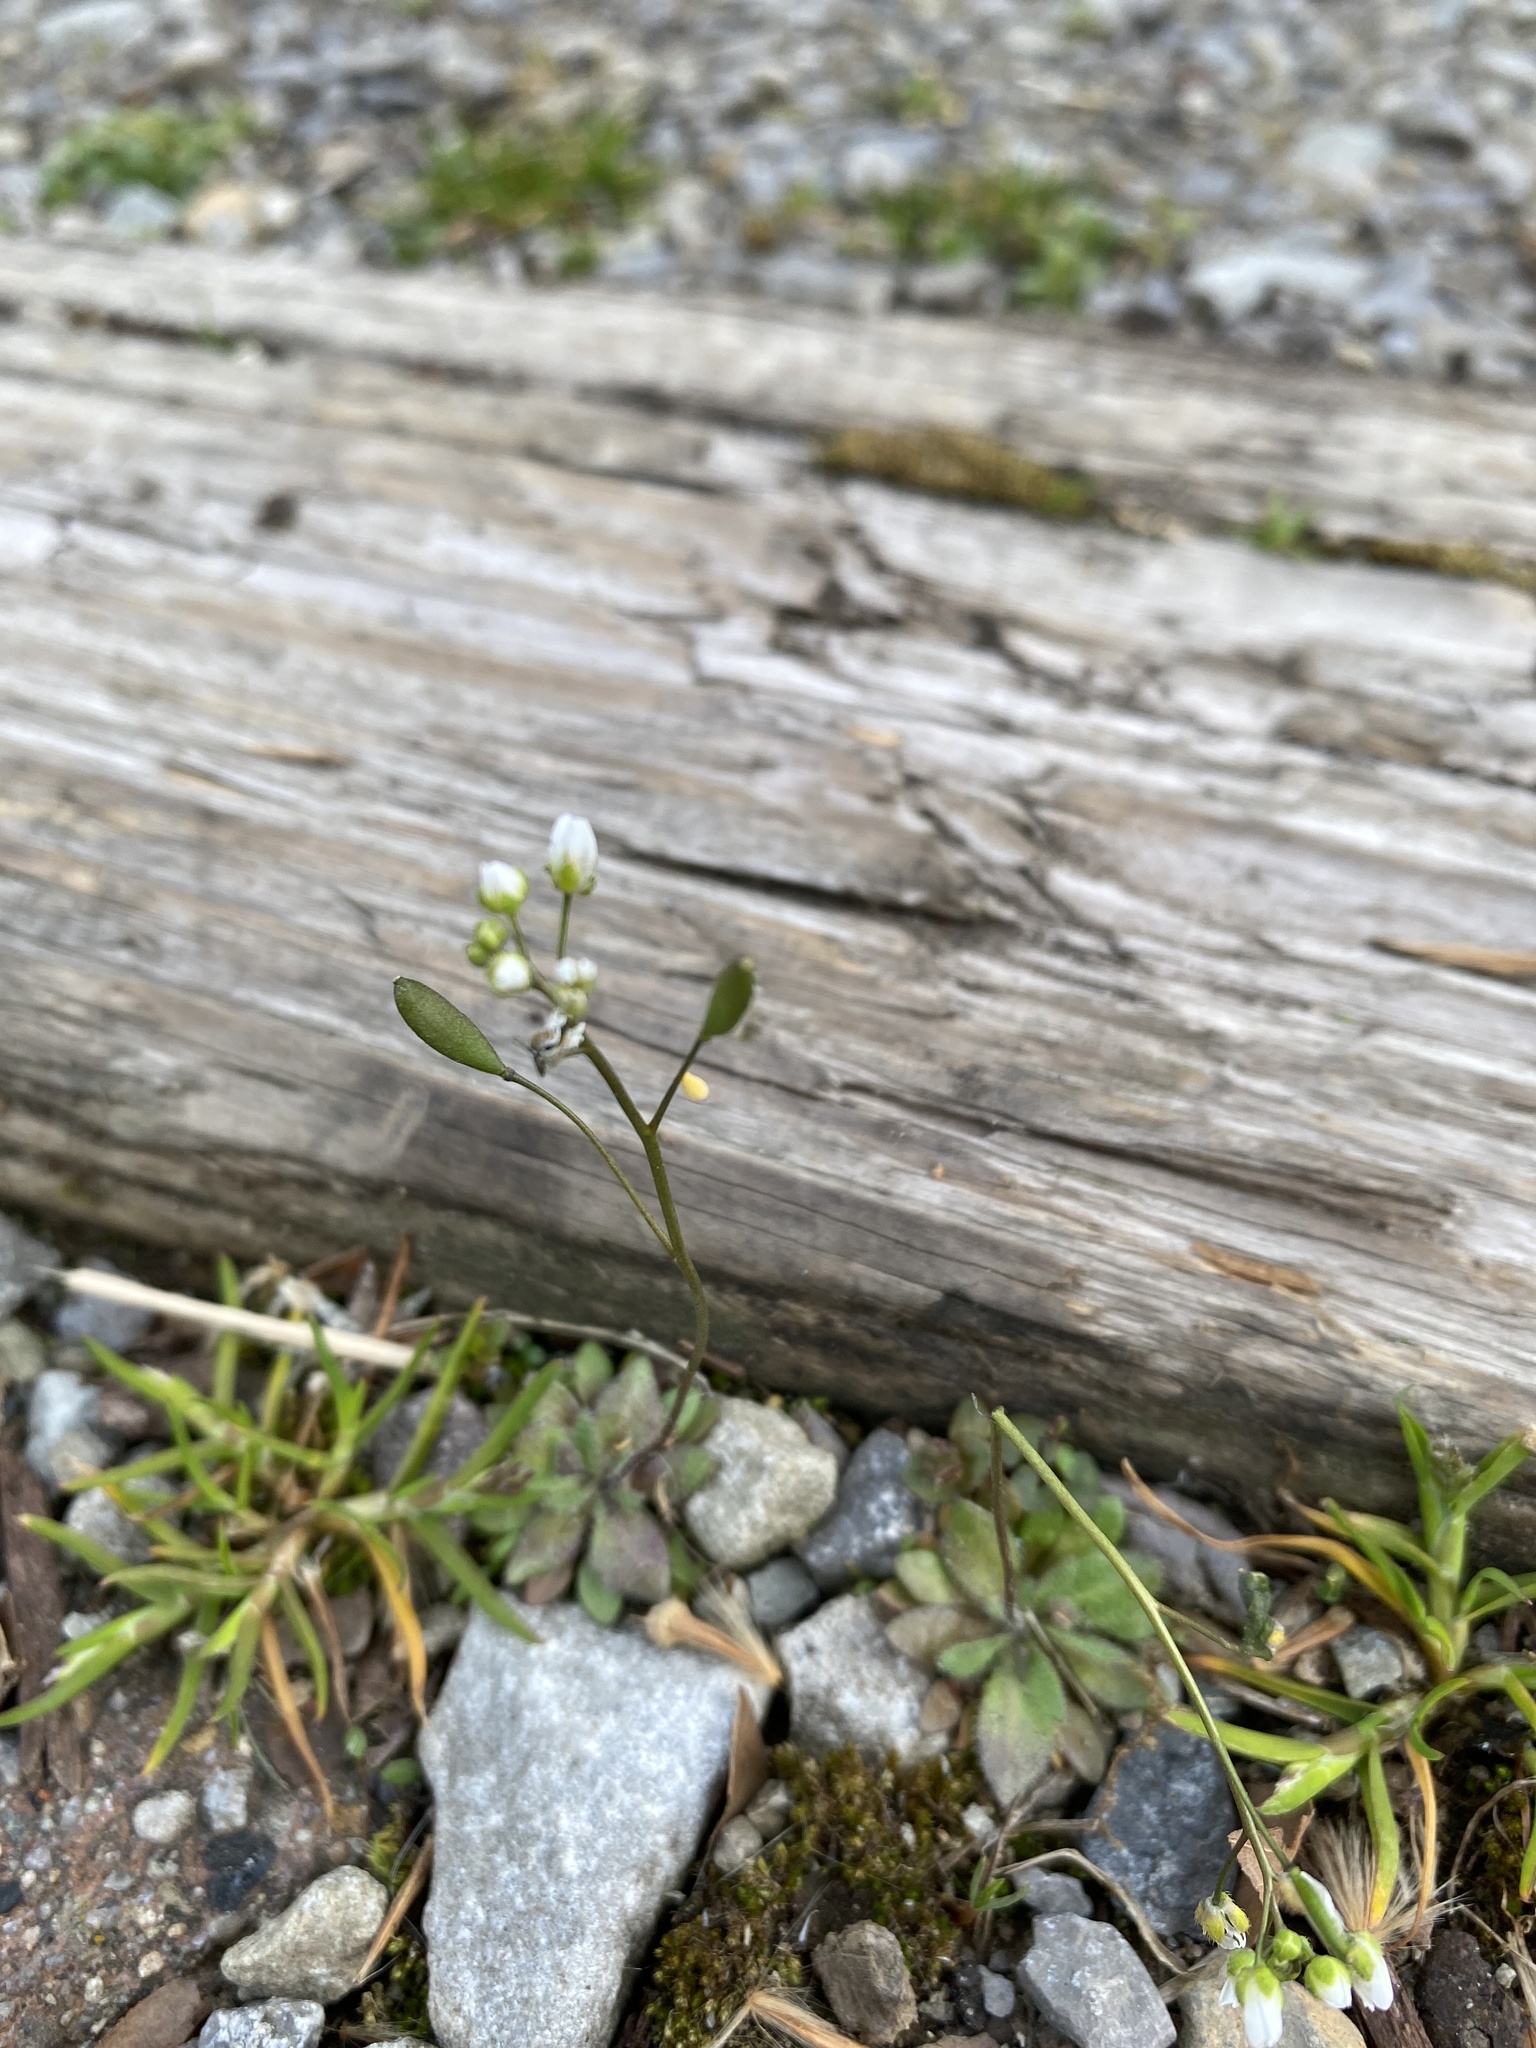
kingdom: Plantae
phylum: Tracheophyta
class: Magnoliopsida
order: Brassicales
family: Brassicaceae
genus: Draba
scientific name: Draba verna
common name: Spring draba
